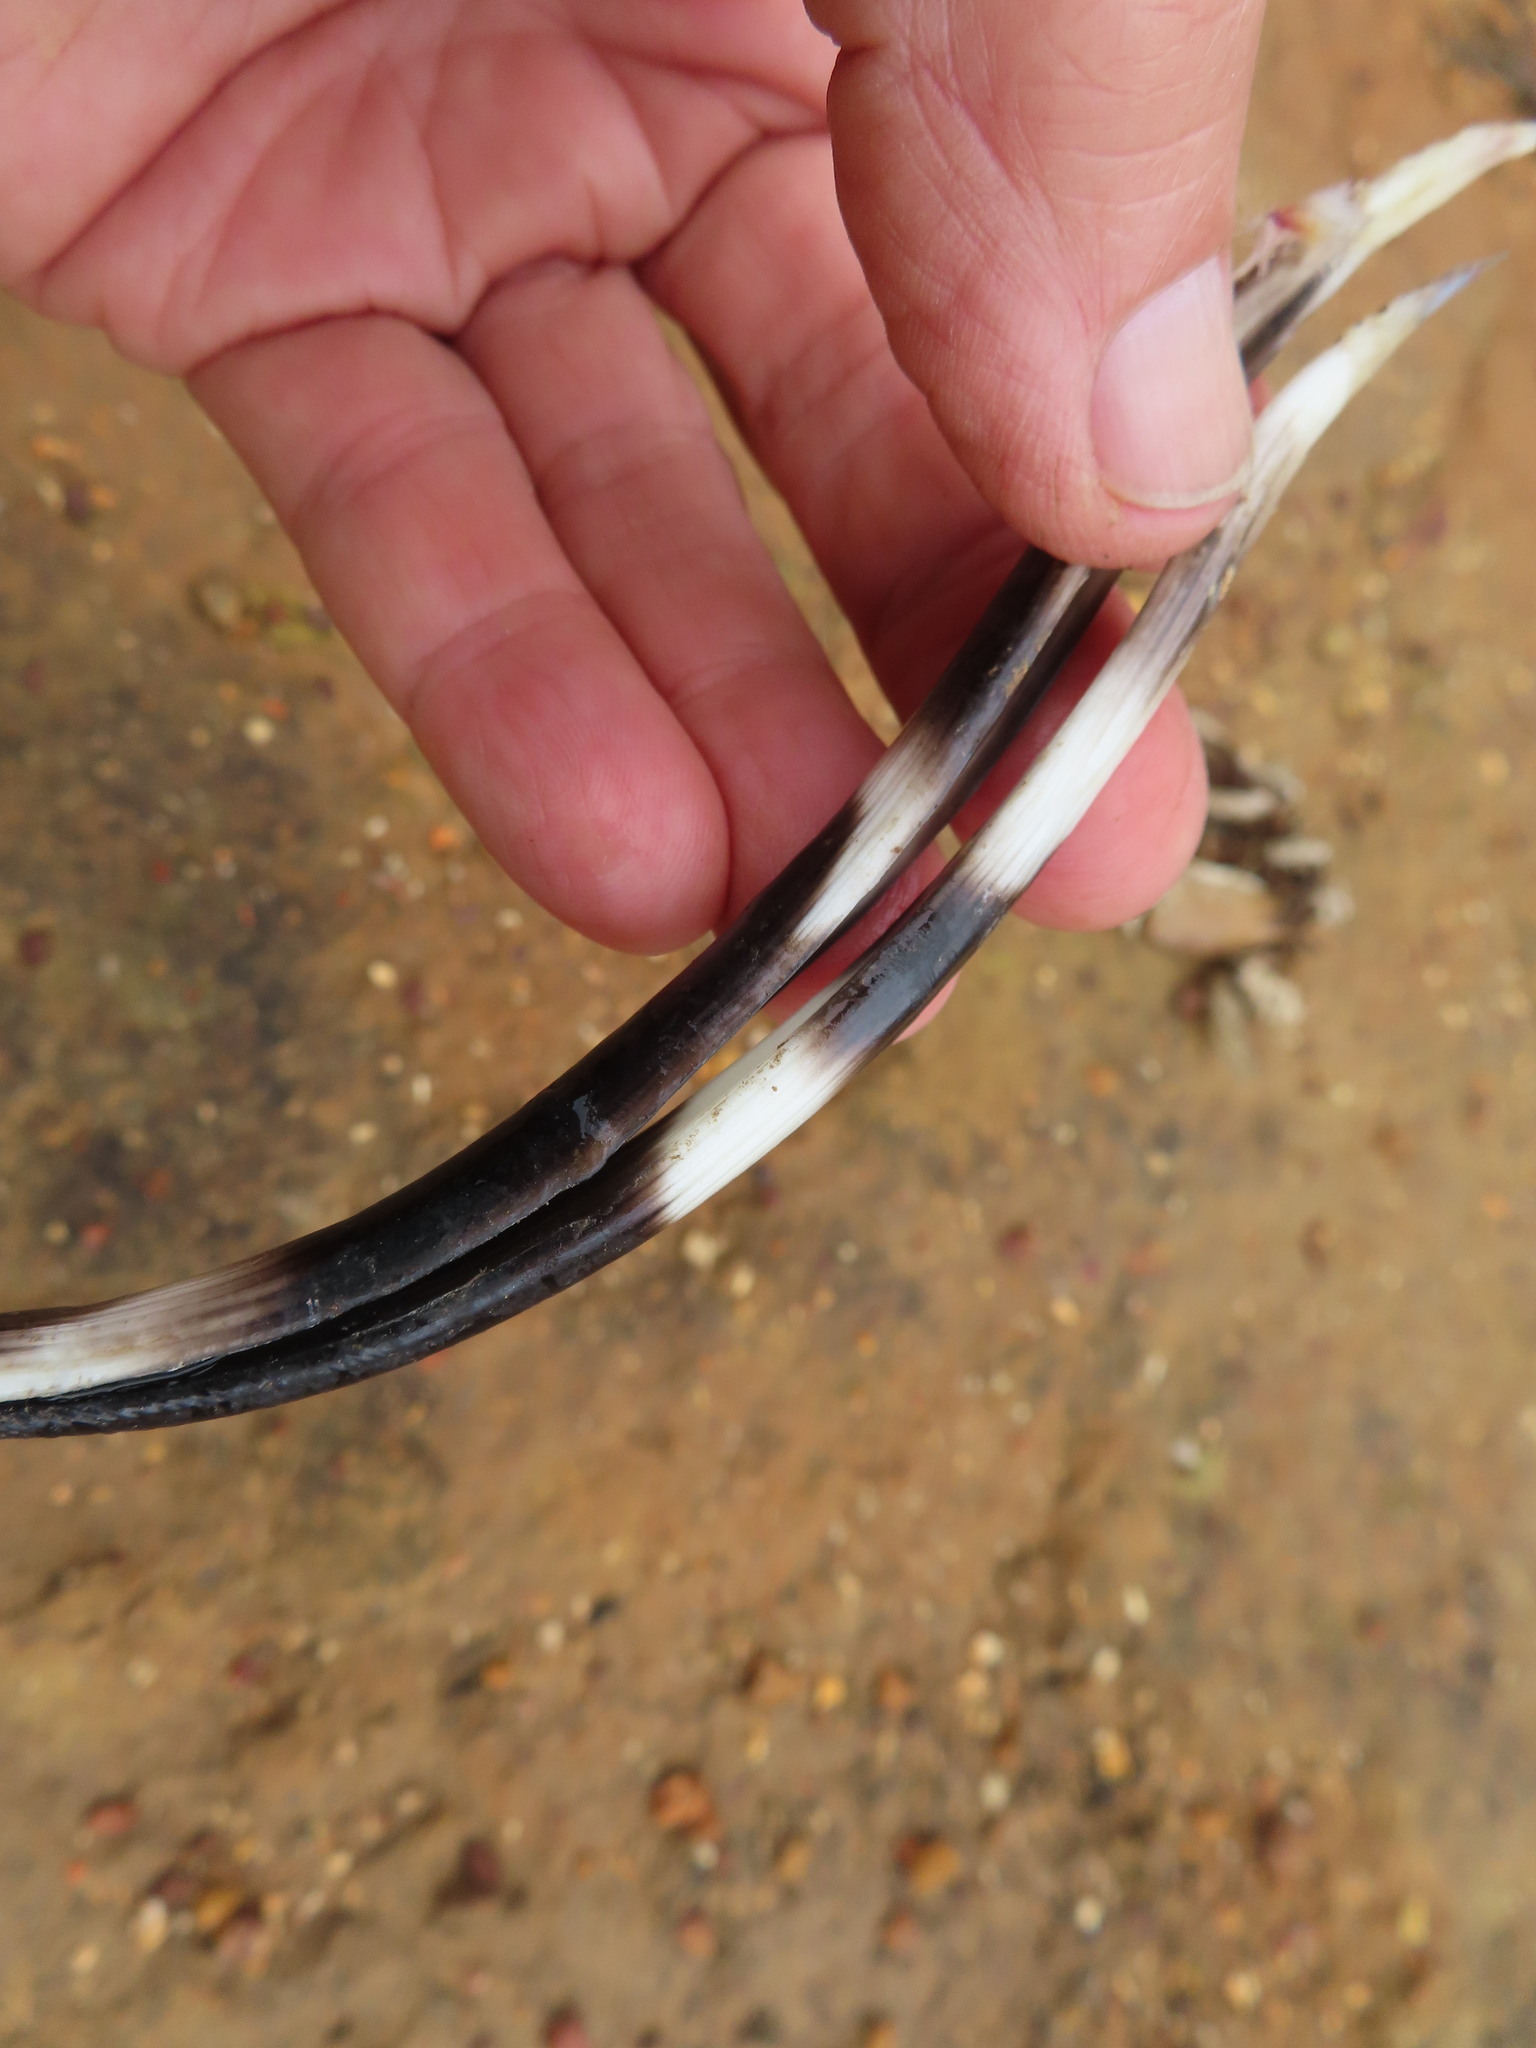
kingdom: Animalia
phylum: Chordata
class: Mammalia
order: Rodentia
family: Hystricidae
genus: Hystrix
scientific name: Hystrix africaeaustralis
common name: Cape porcupine
